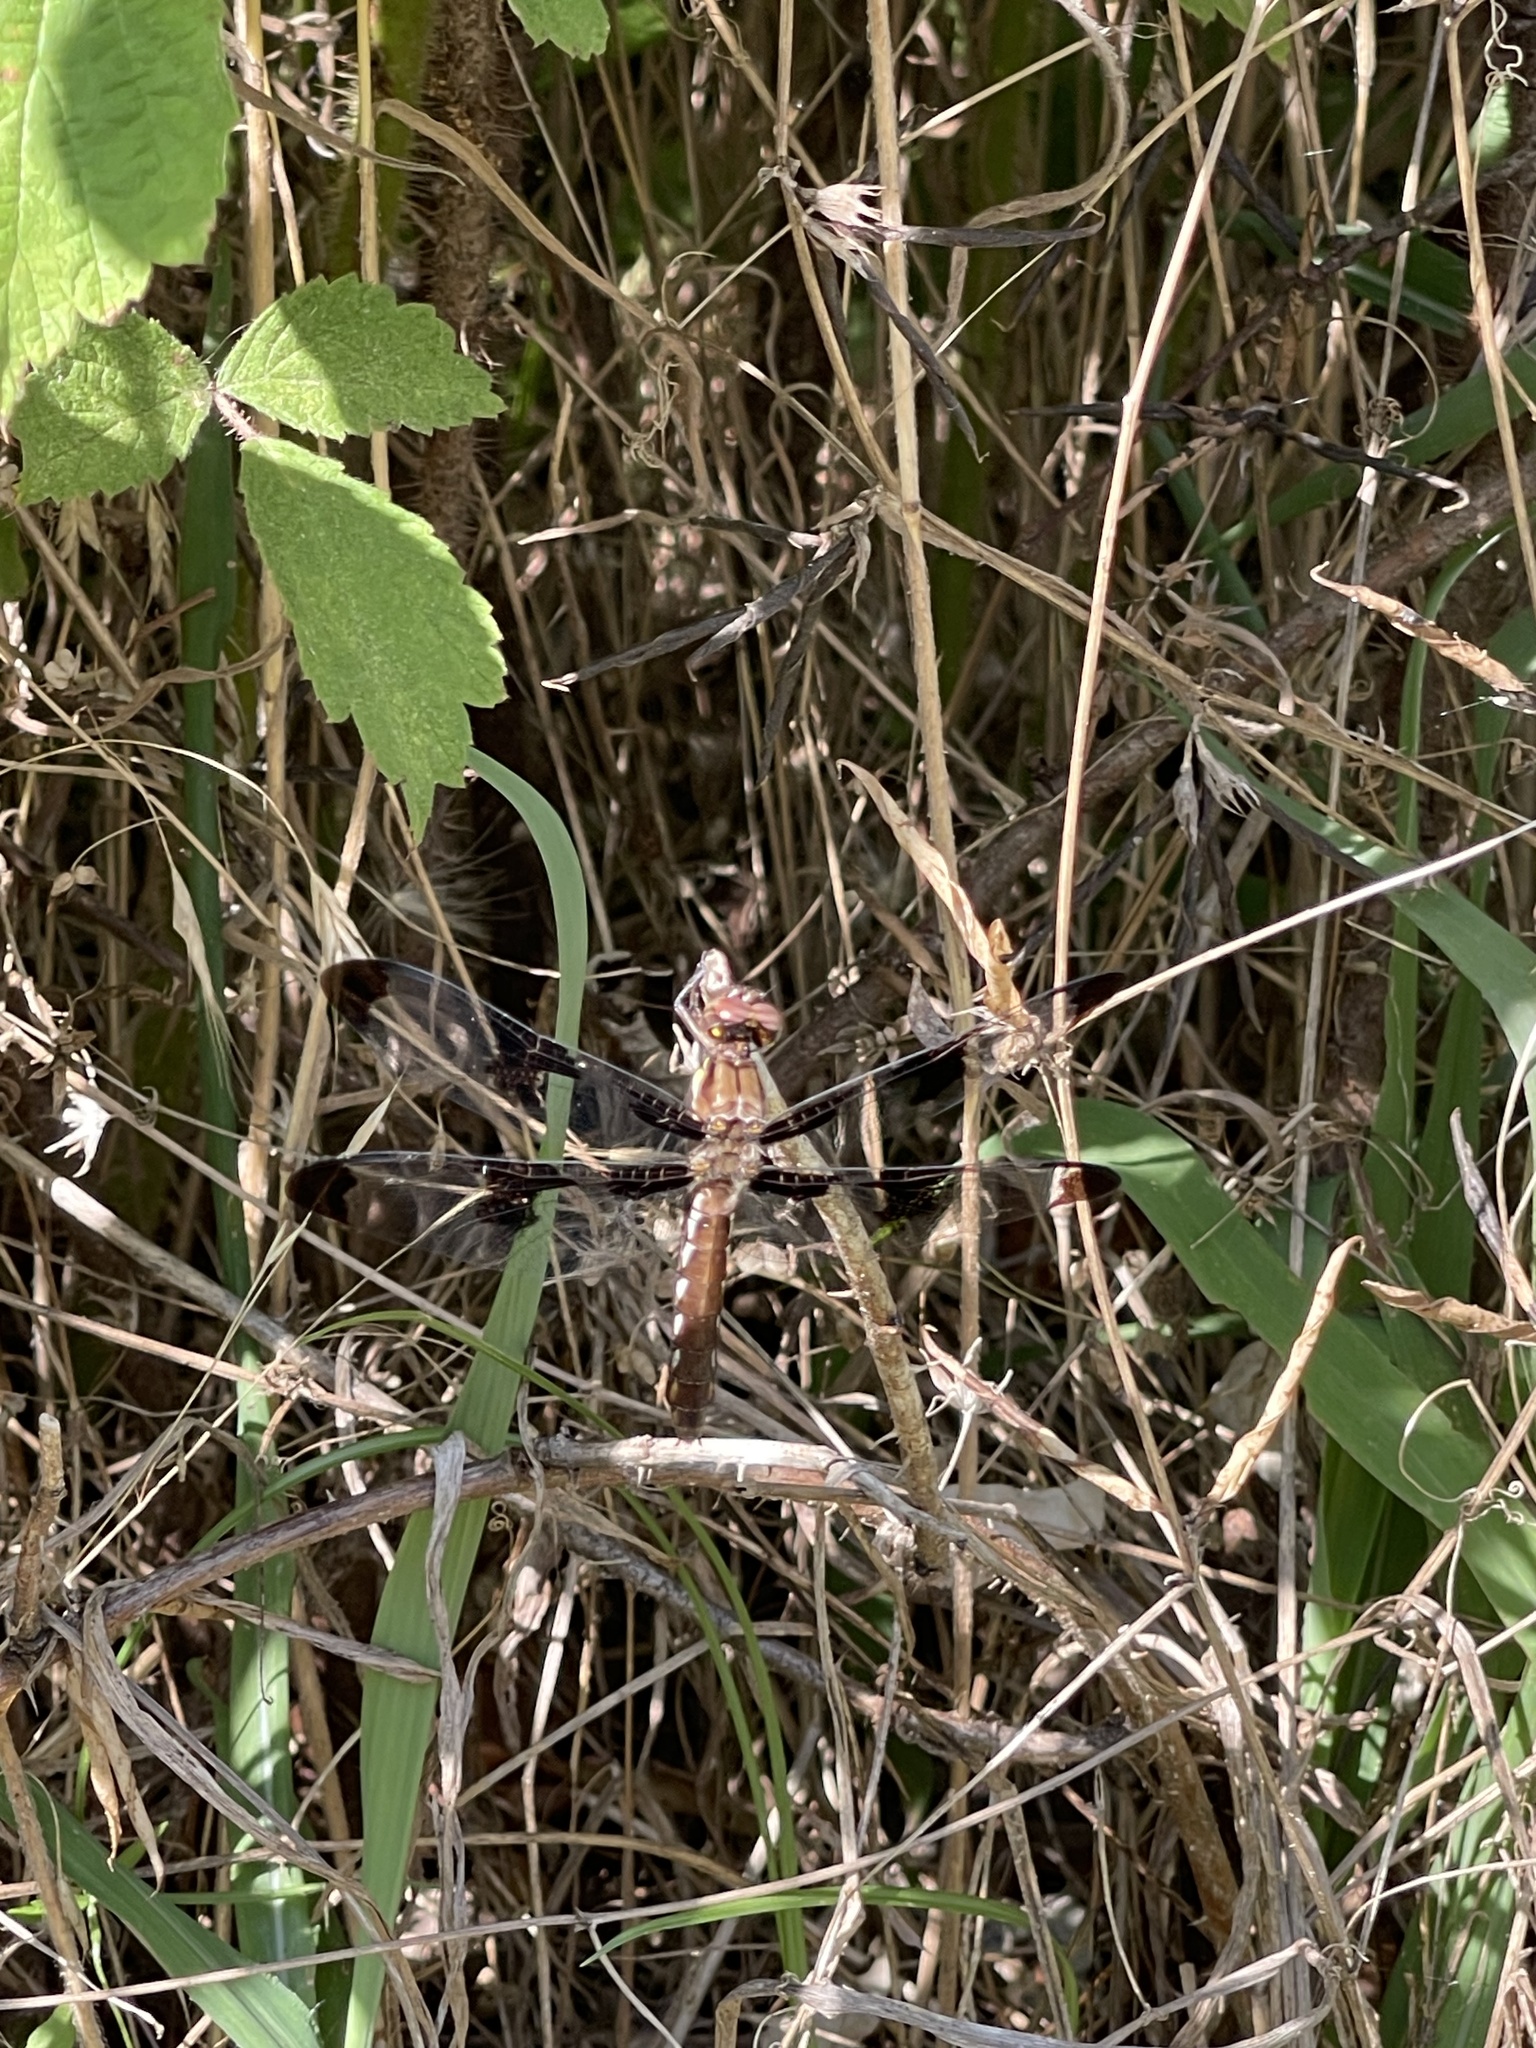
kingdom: Animalia
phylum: Arthropoda
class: Insecta
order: Odonata
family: Libellulidae
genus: Plathemis
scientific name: Plathemis lydia
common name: Common whitetail
